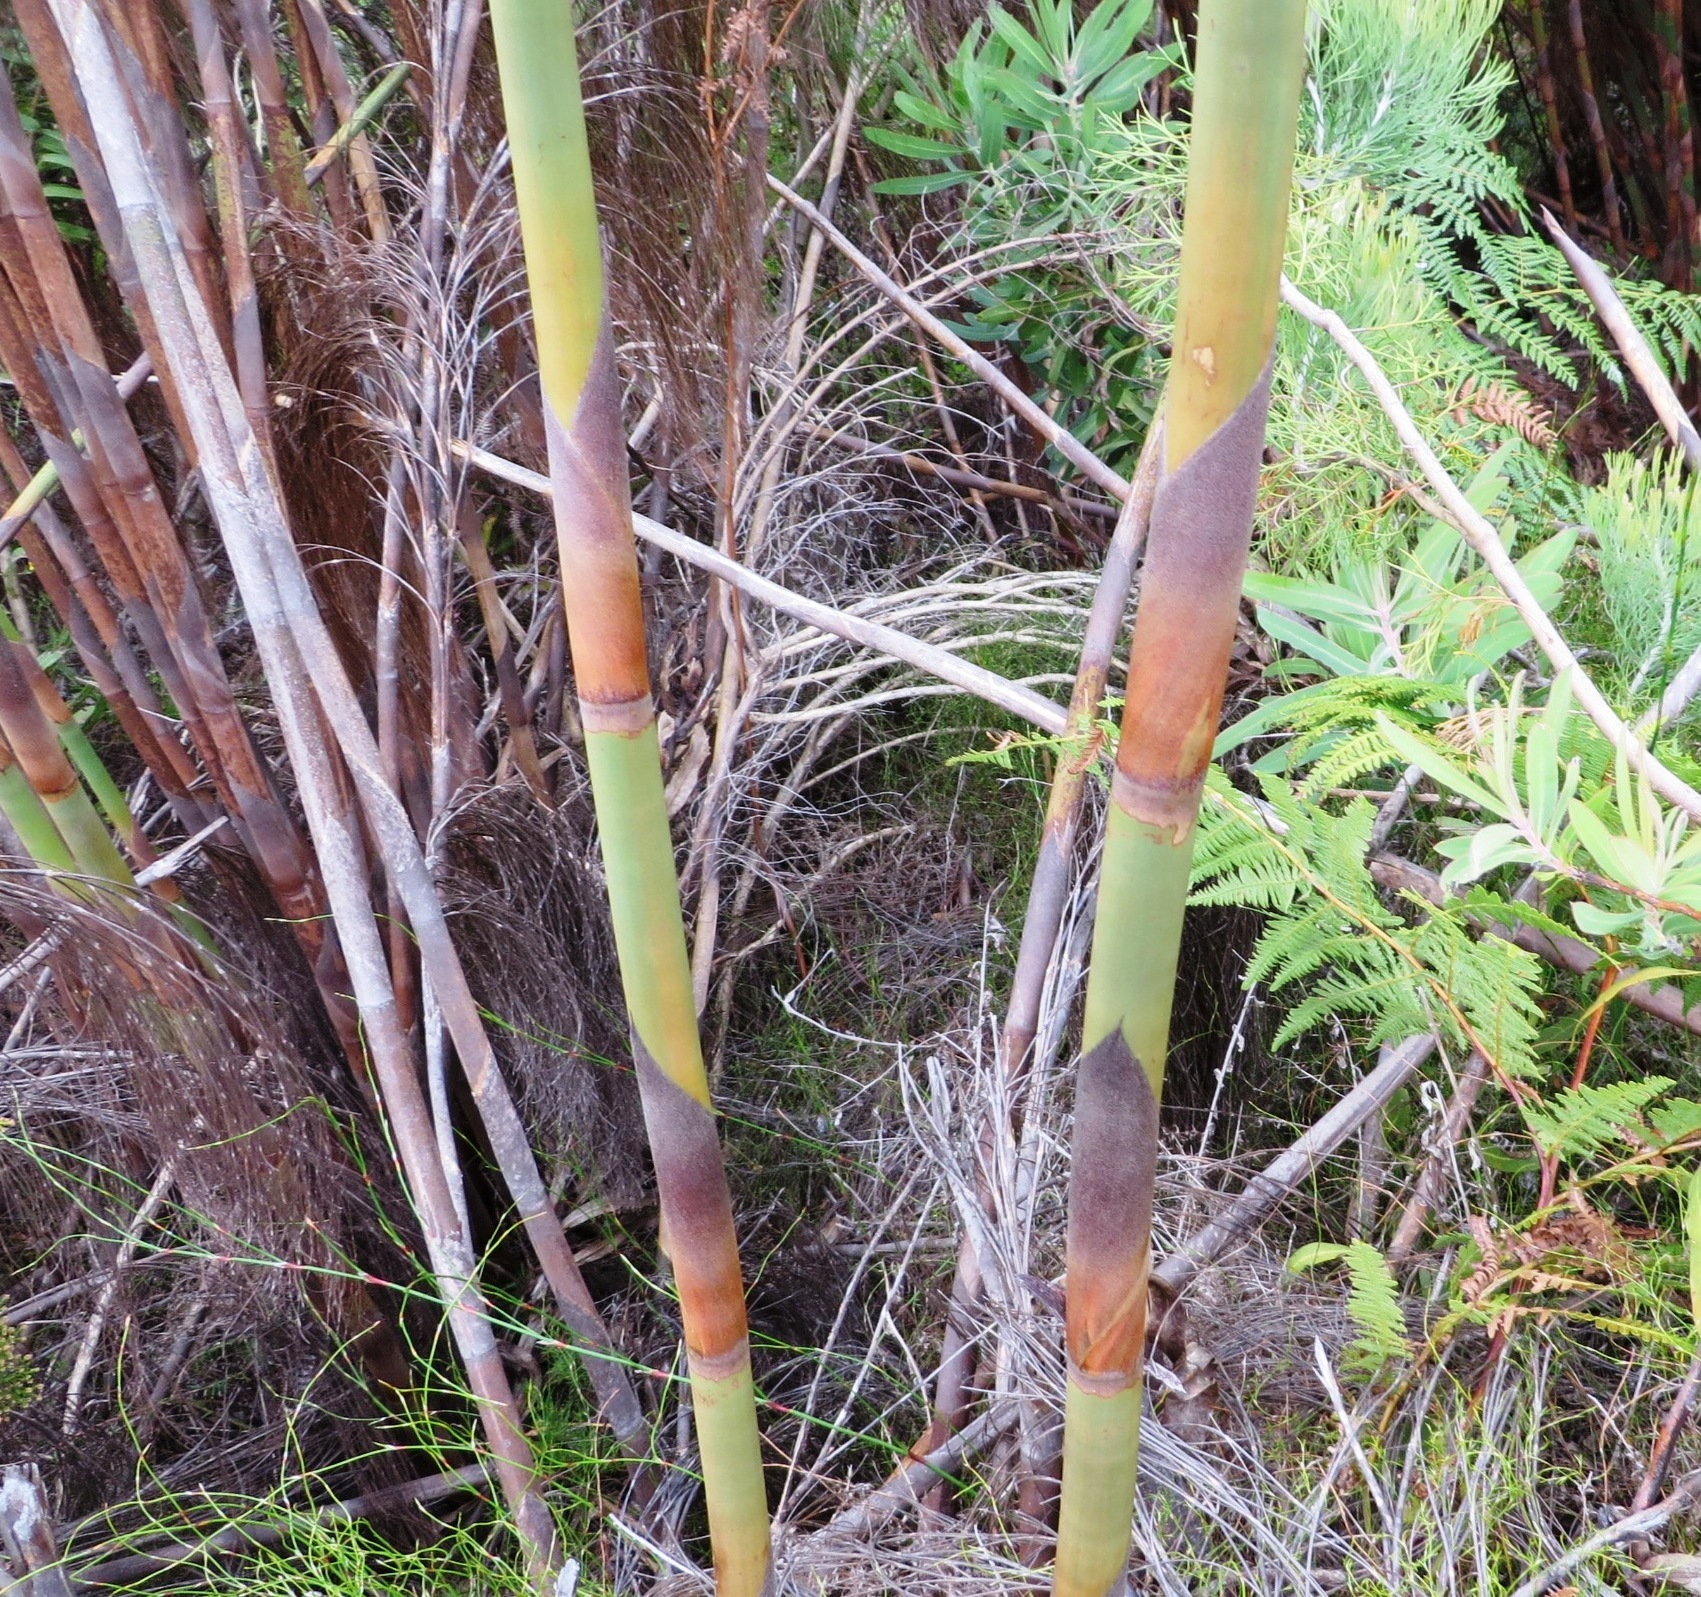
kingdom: Plantae
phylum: Tracheophyta
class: Liliopsida
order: Poales
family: Restionaceae
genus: Cannomois
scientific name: Cannomois grandis
